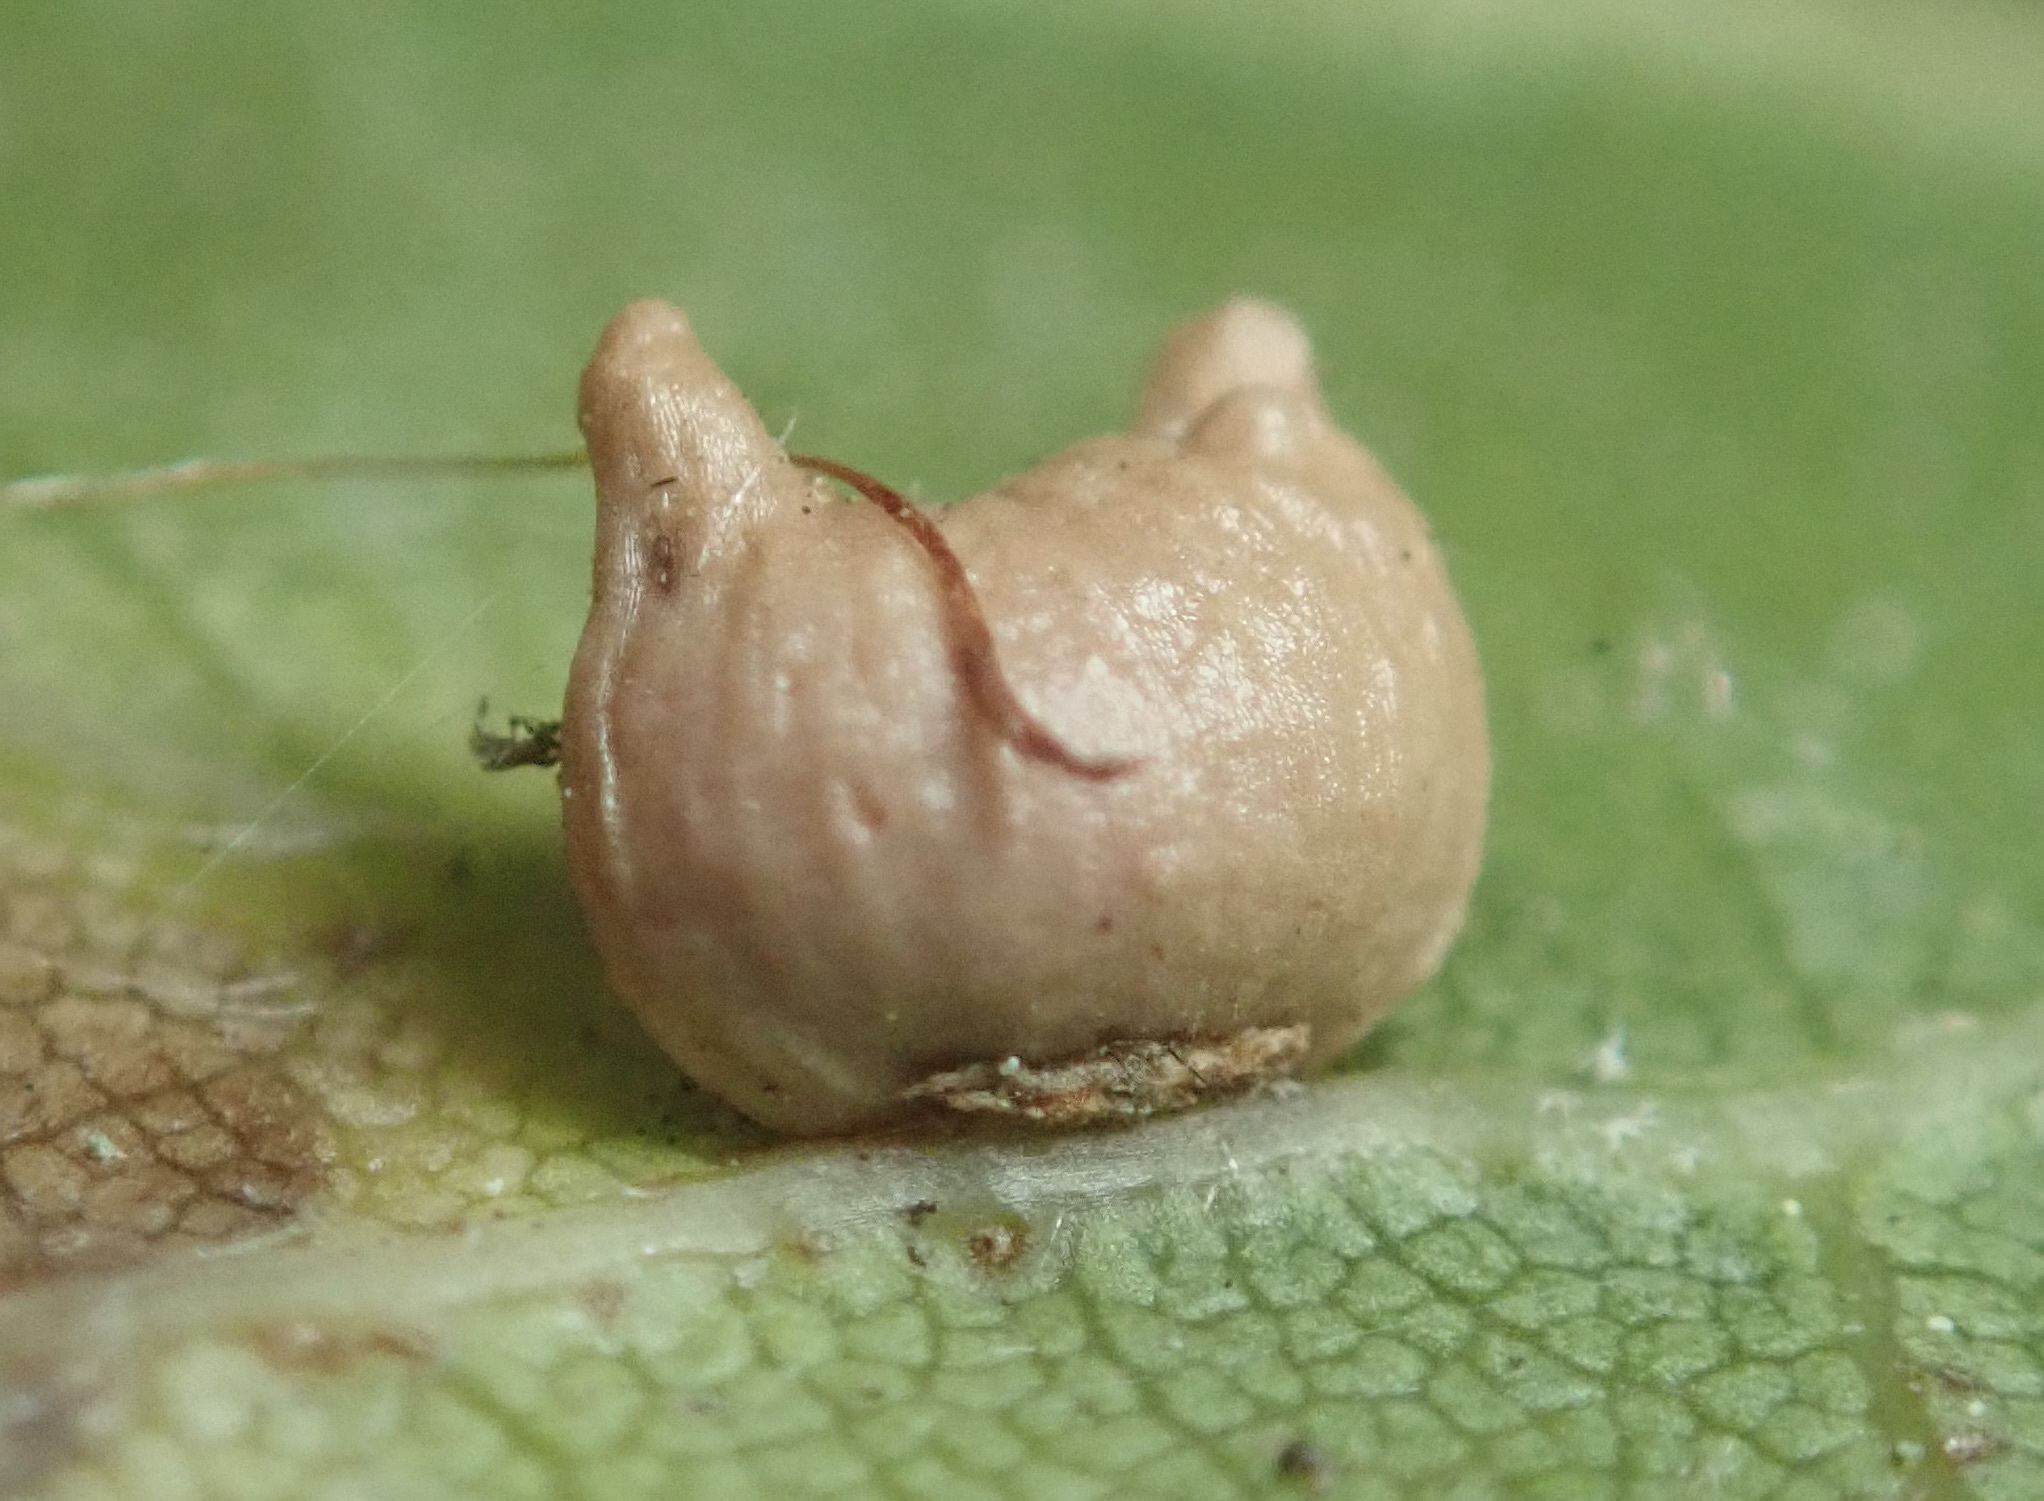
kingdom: Animalia
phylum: Arthropoda
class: Insecta
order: Hymenoptera
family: Cynipidae
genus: Dryocosmus
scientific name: Dryocosmus
